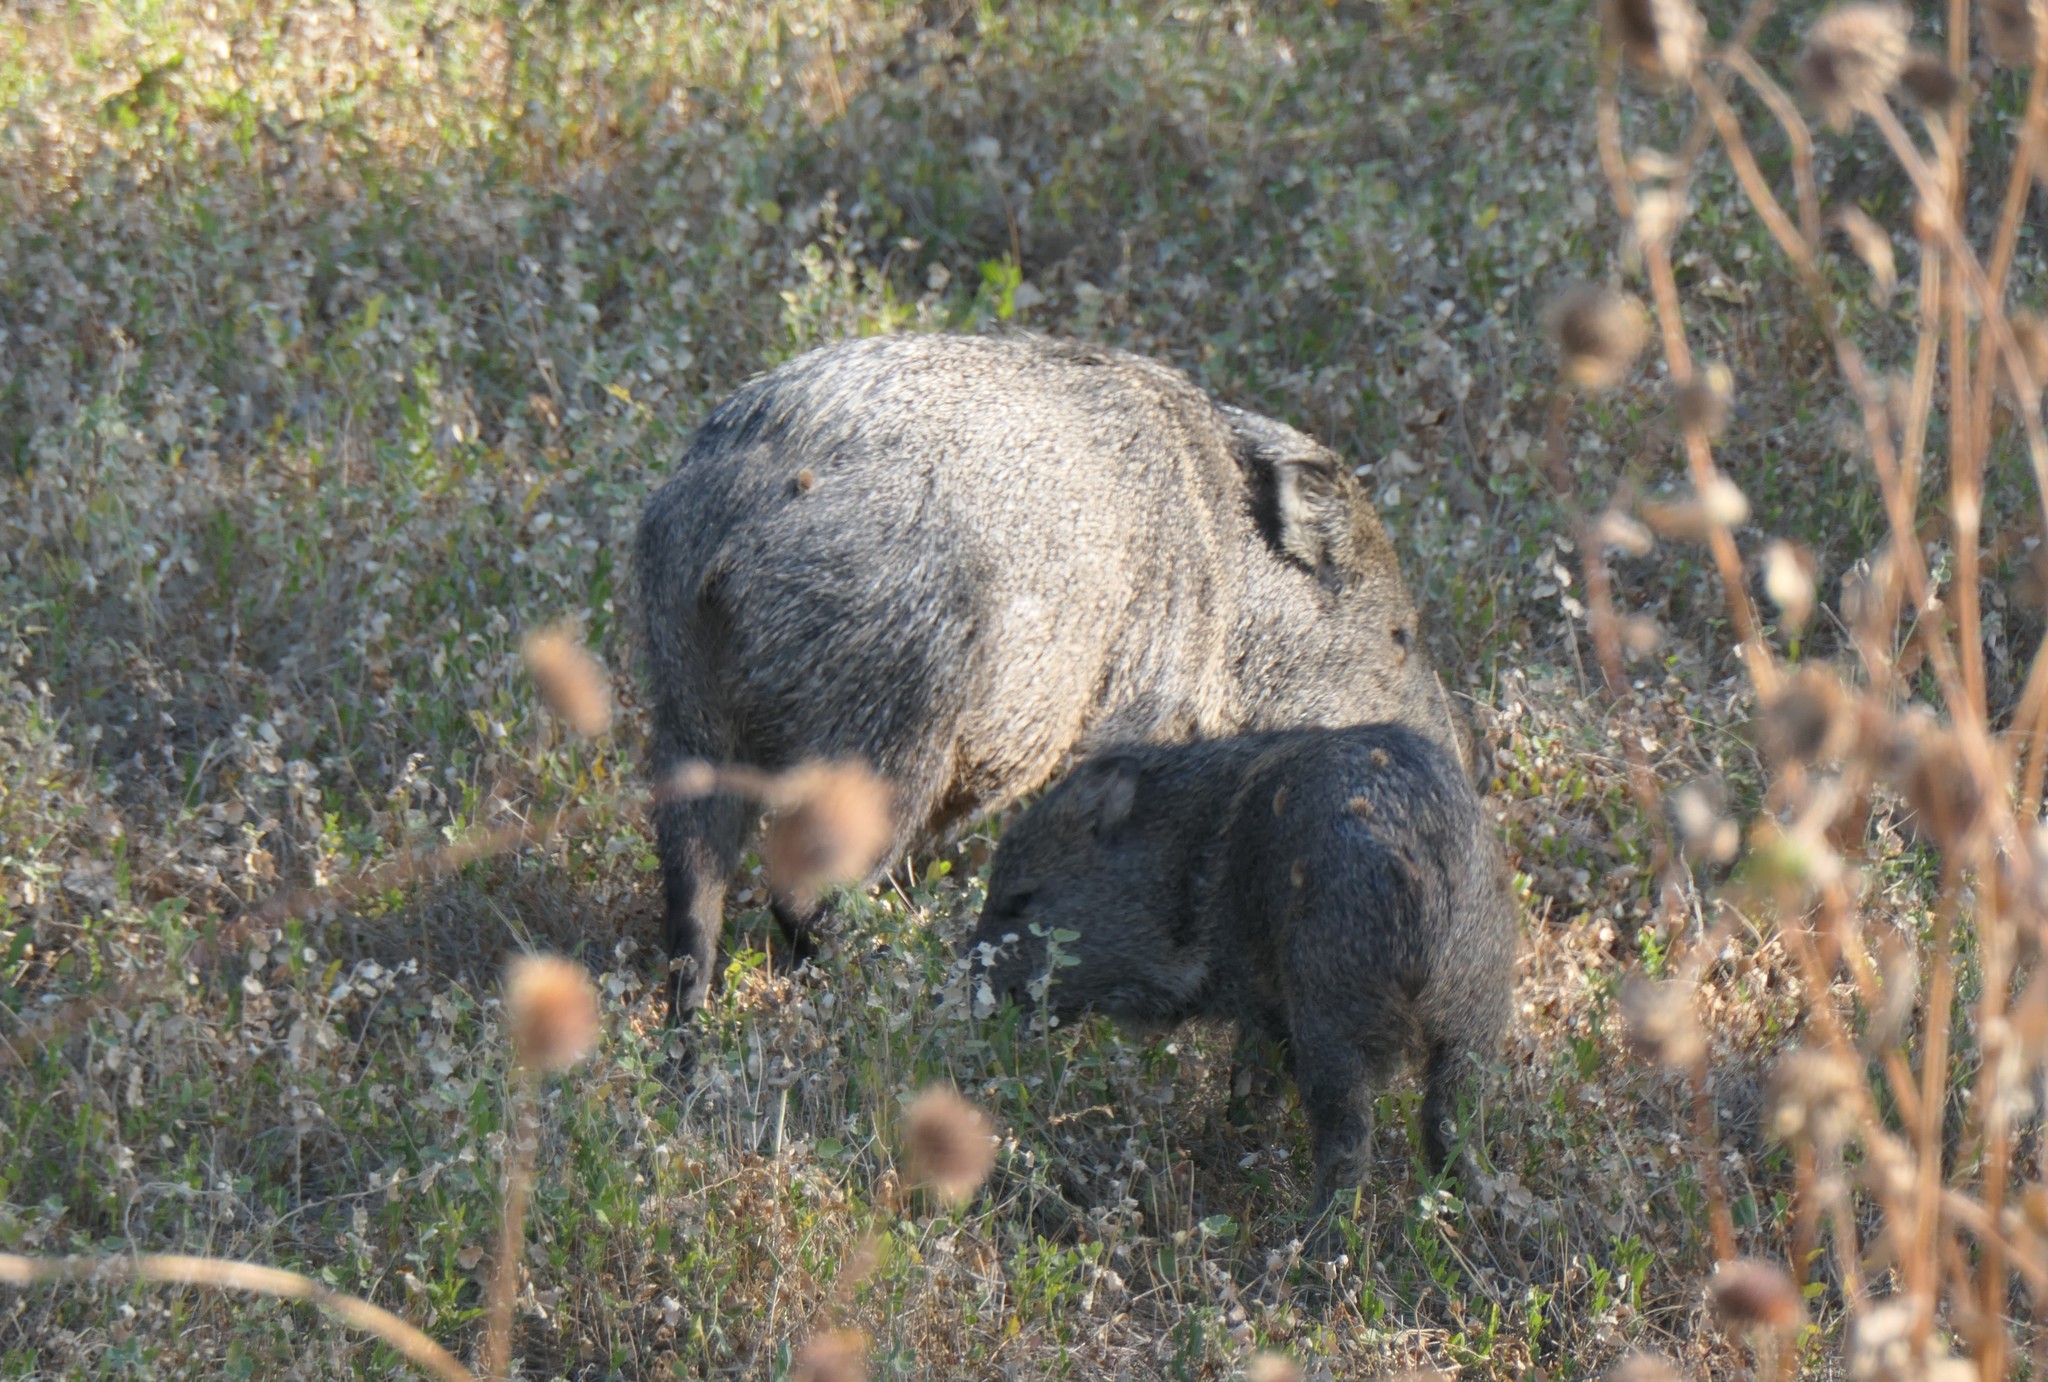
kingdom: Animalia
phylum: Chordata
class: Mammalia
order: Artiodactyla
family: Tayassuidae
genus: Pecari
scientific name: Pecari tajacu
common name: Collared peccary
